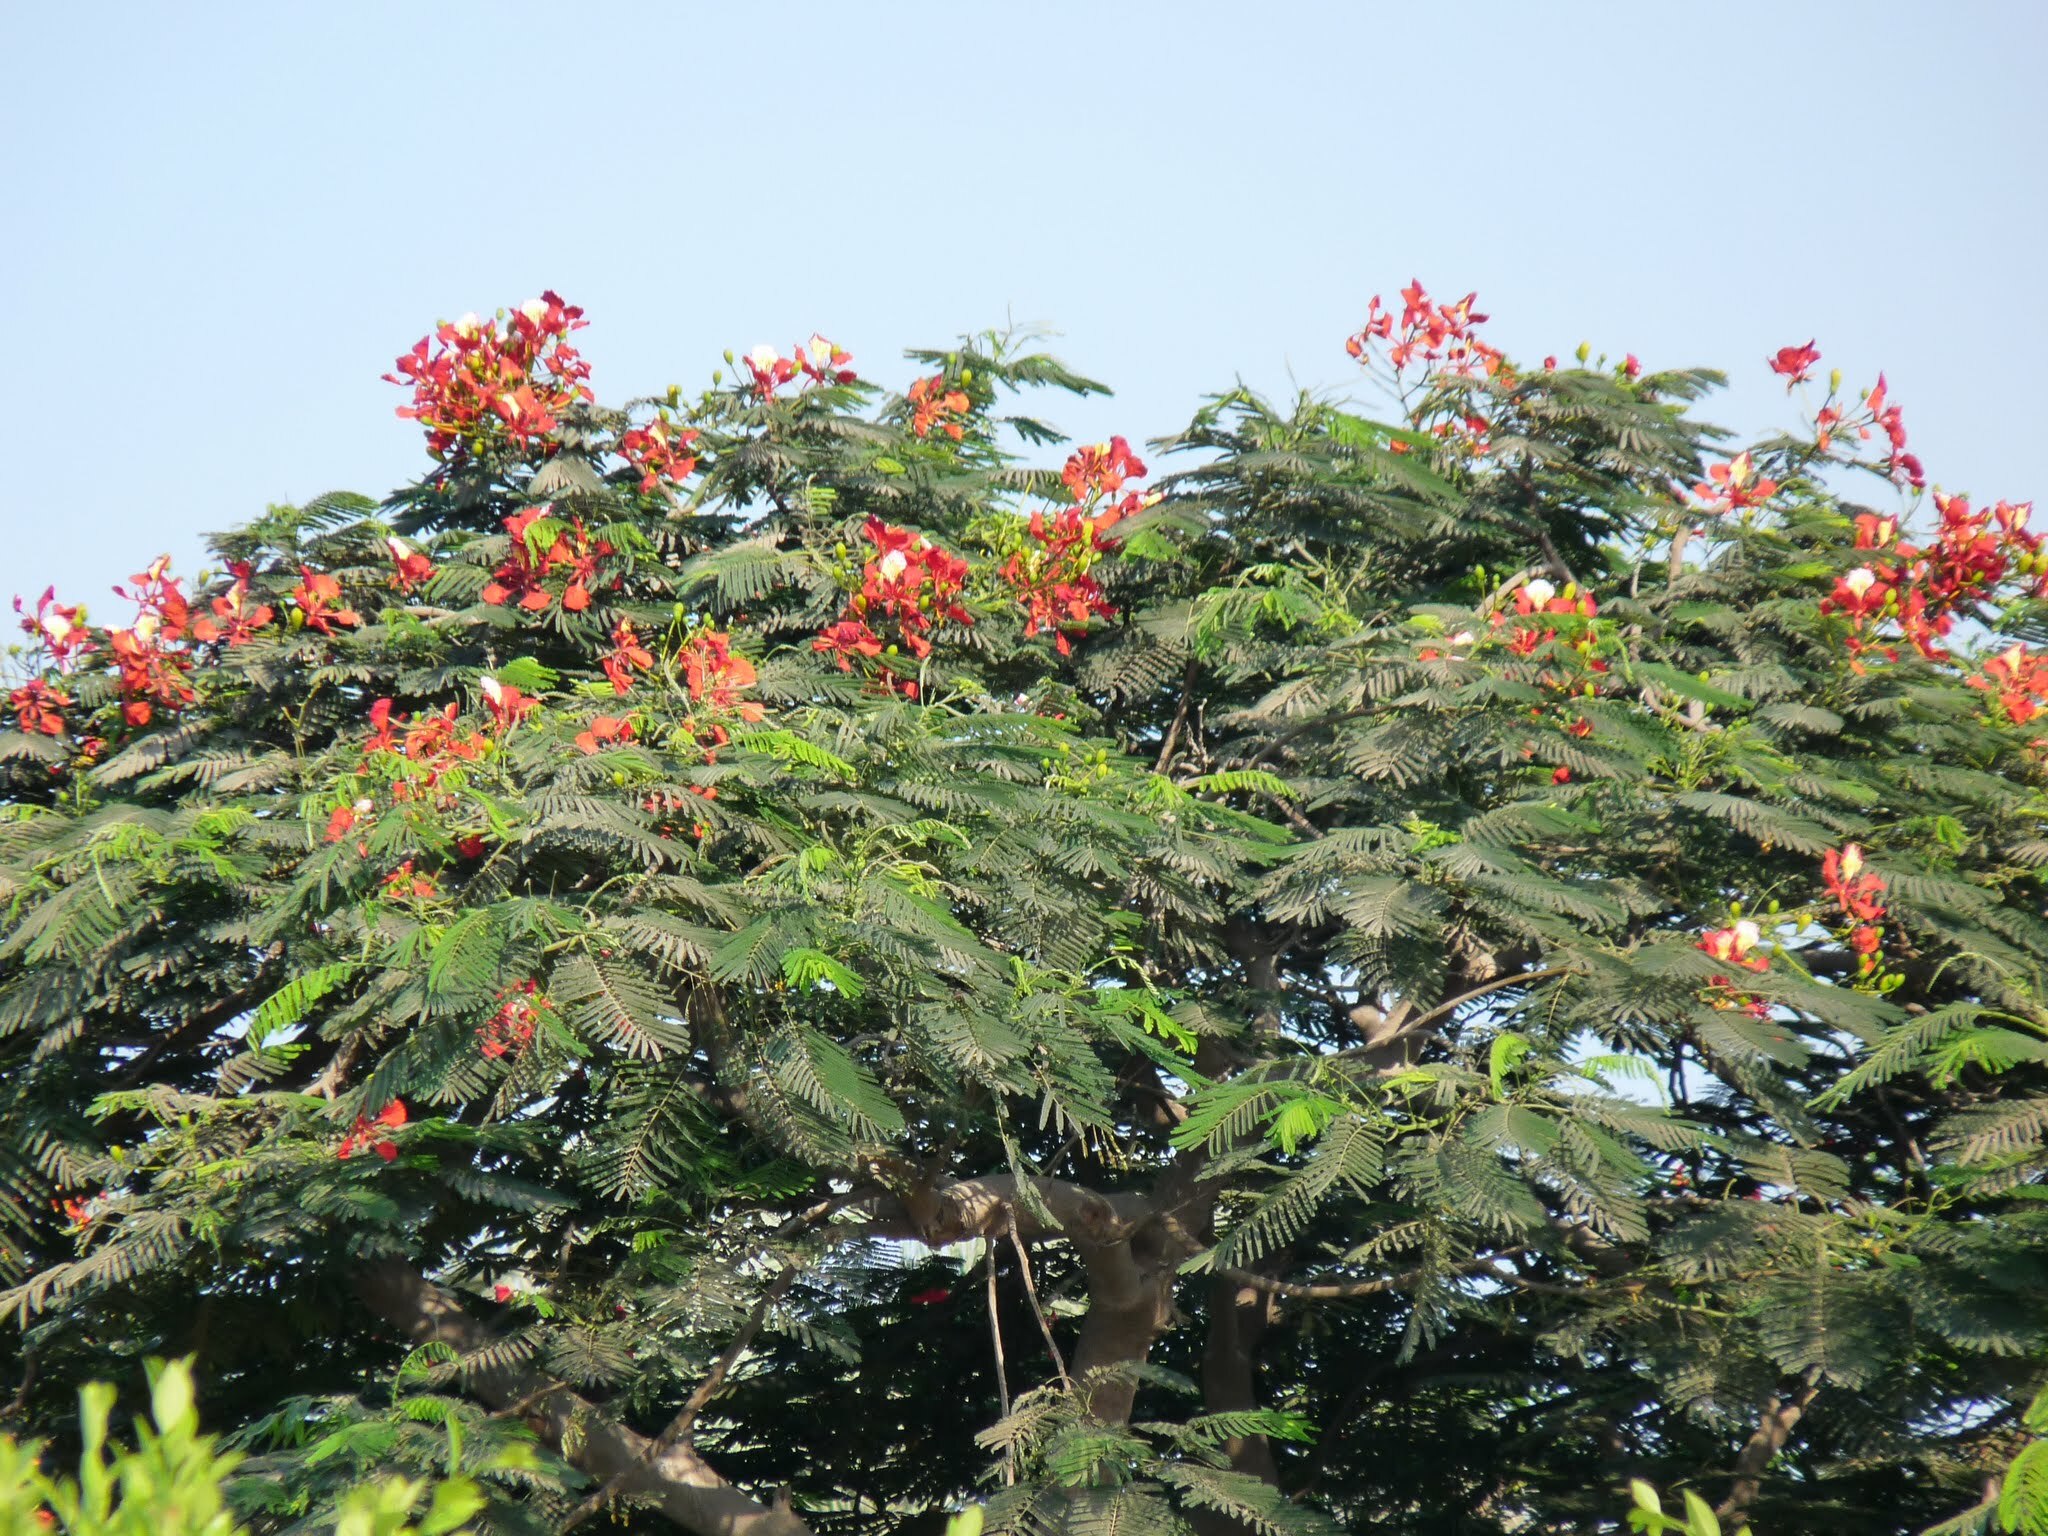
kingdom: Plantae
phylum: Tracheophyta
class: Magnoliopsida
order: Fabales
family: Fabaceae
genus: Delonix
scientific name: Delonix regia
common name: Royal poinciana
